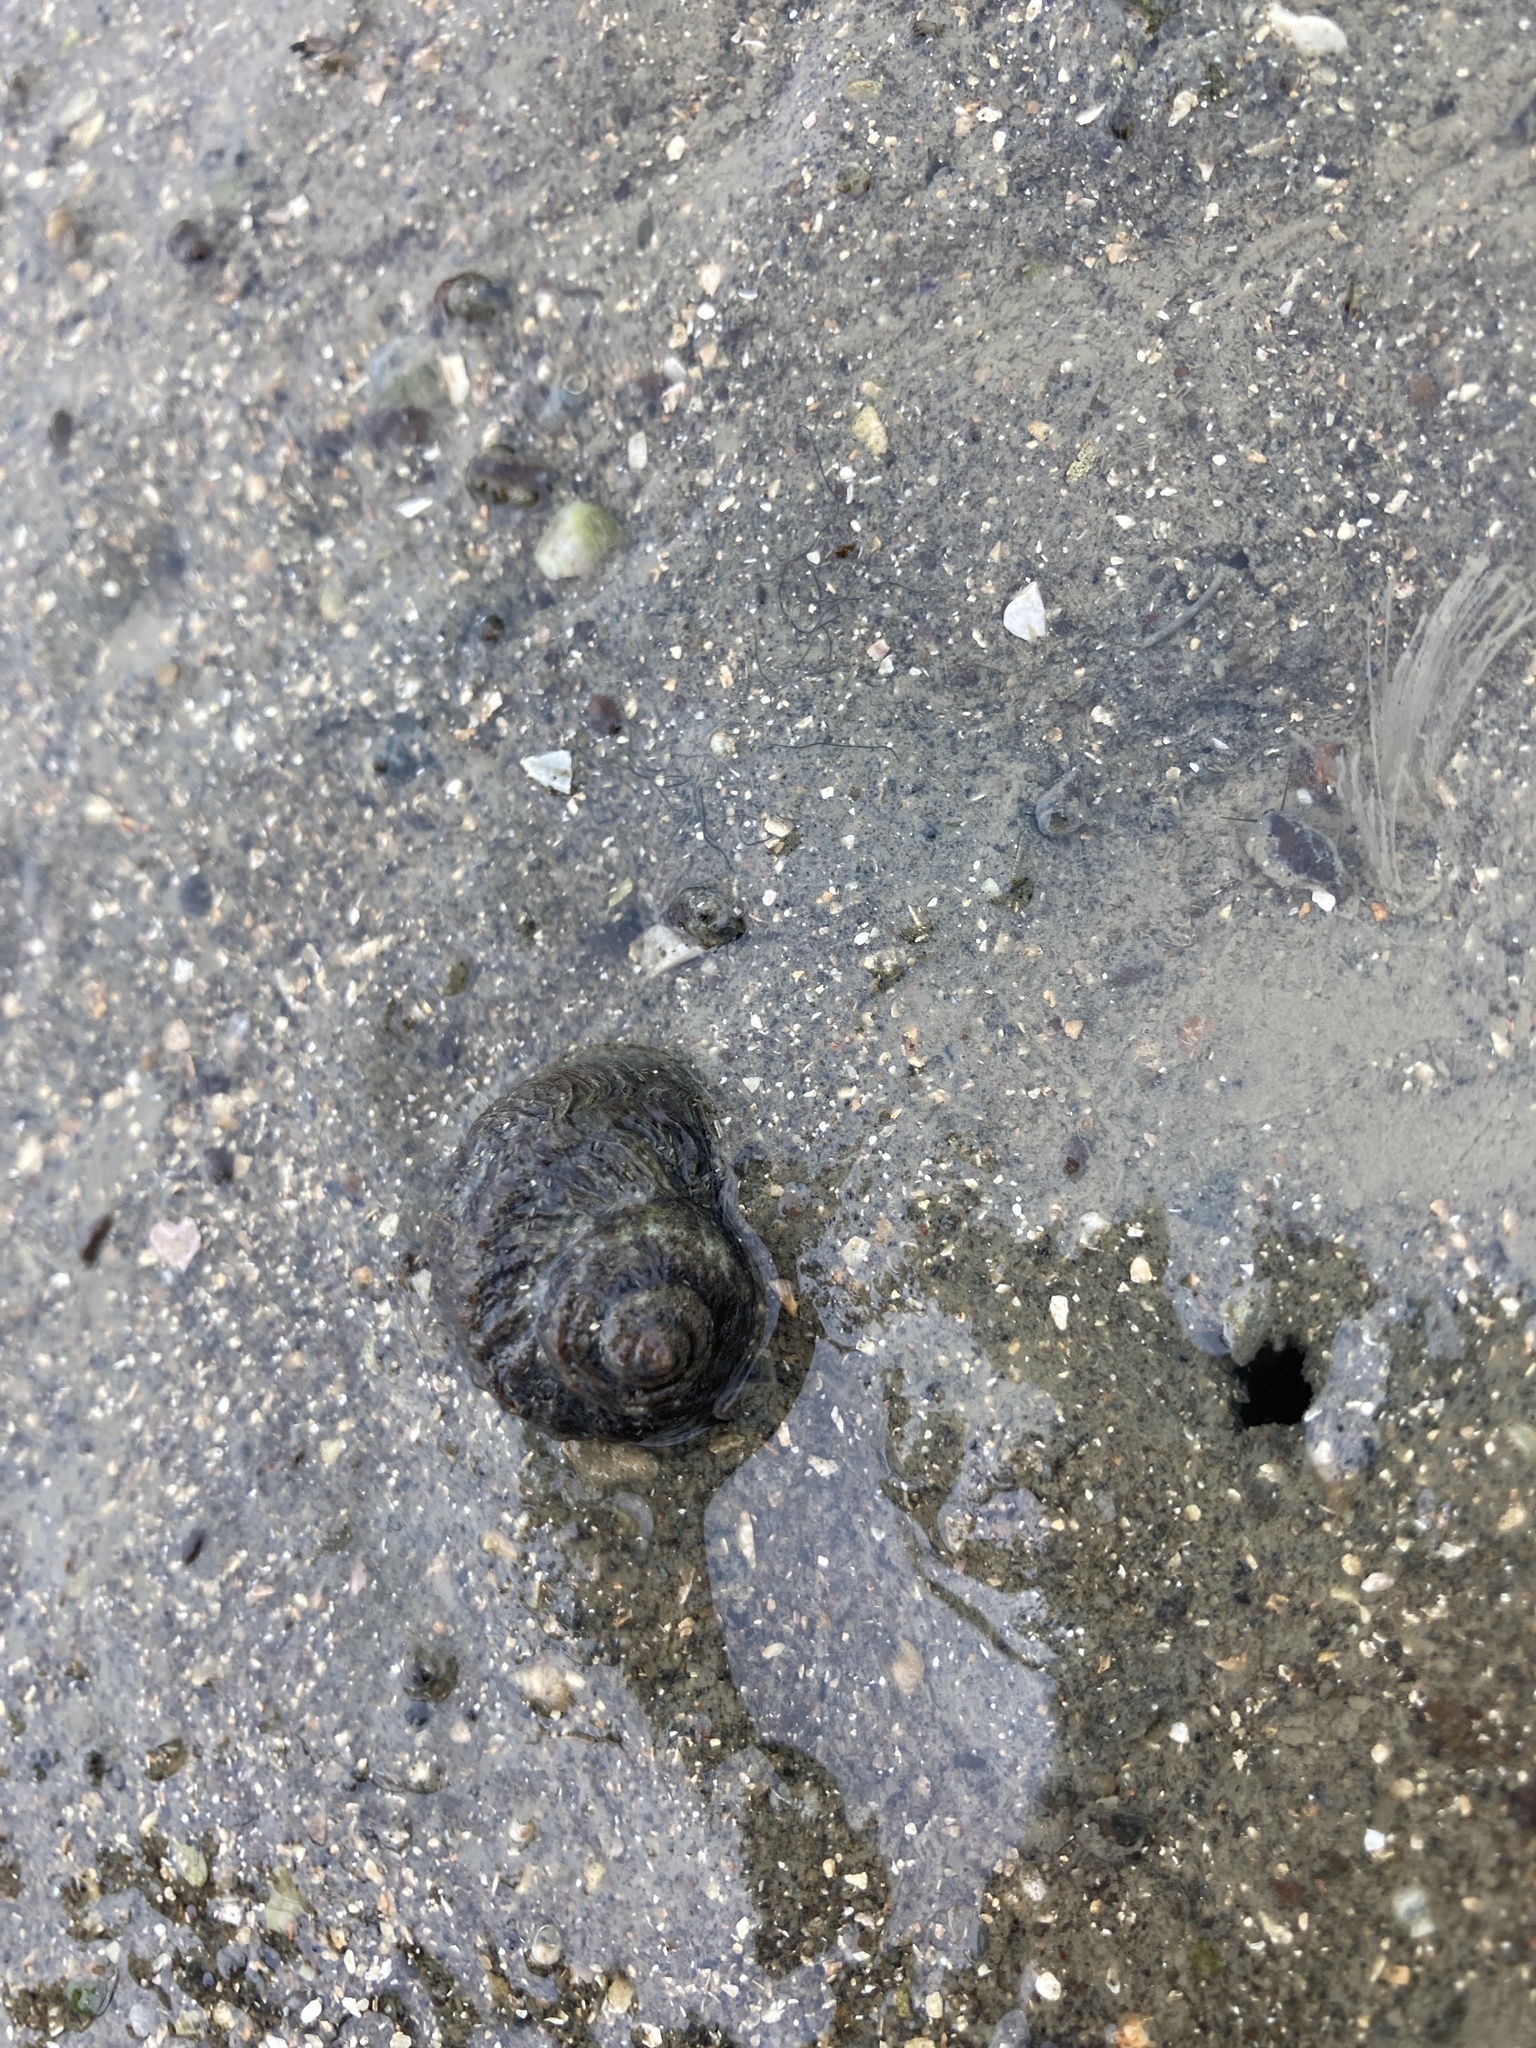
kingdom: Animalia
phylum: Mollusca
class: Gastropoda
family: Amphibolidae
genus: Amphibola
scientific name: Amphibola crenata
